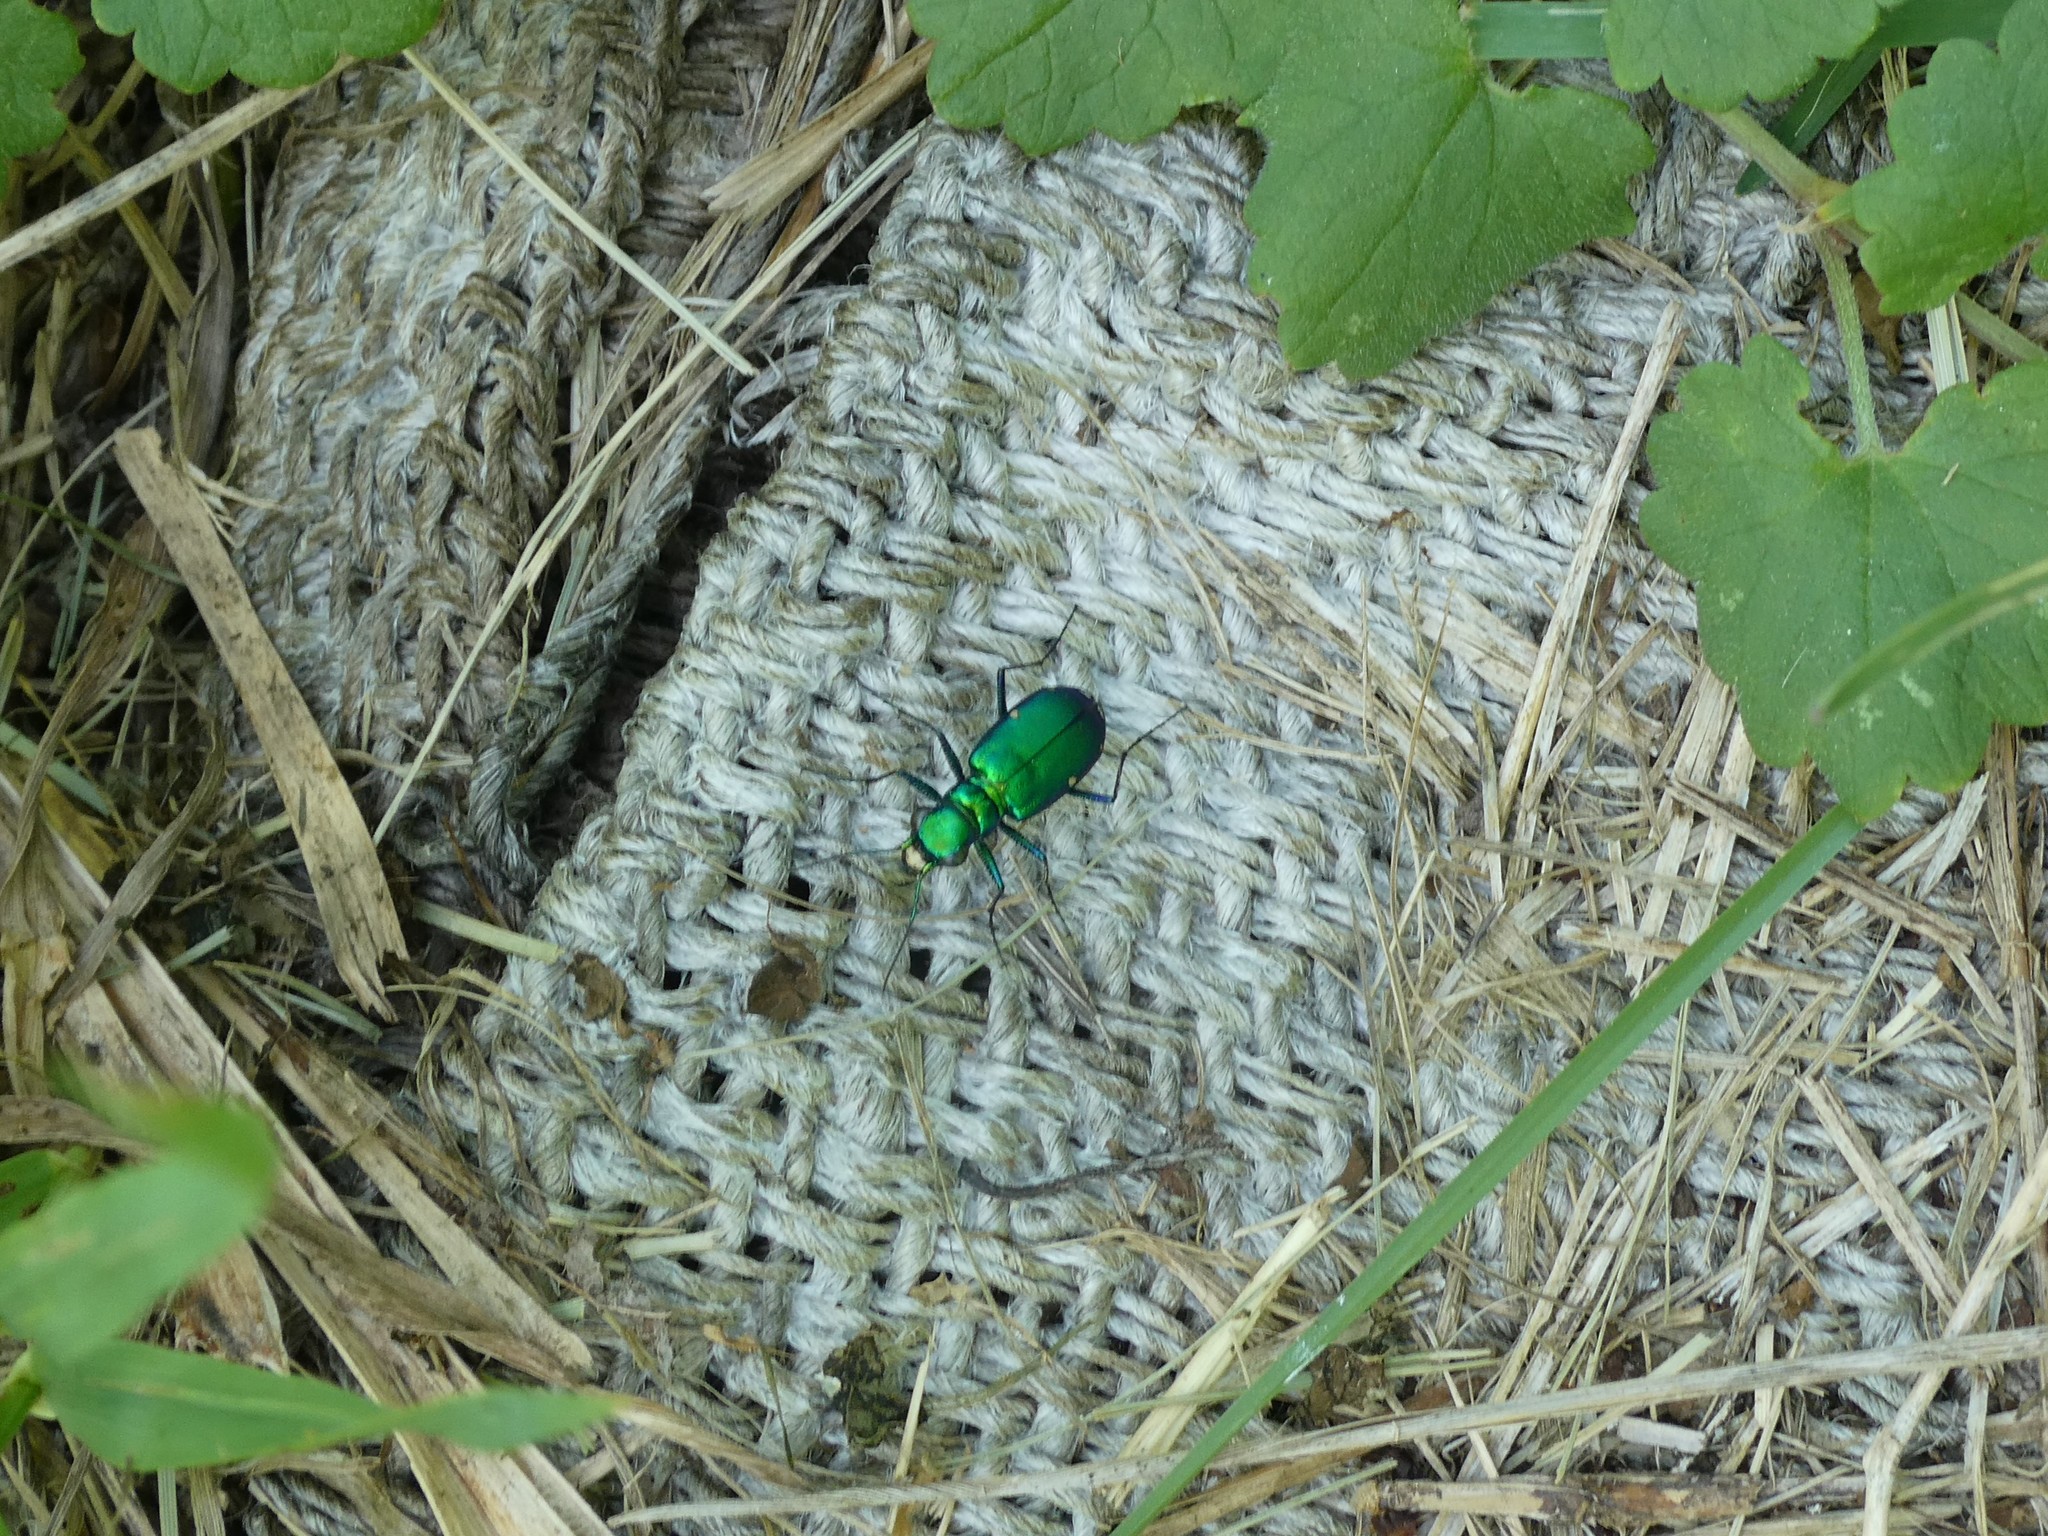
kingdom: Animalia
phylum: Arthropoda
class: Insecta
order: Coleoptera
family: Carabidae
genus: Cicindela
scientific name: Cicindela sexguttata
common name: Six-spotted tiger beetle
